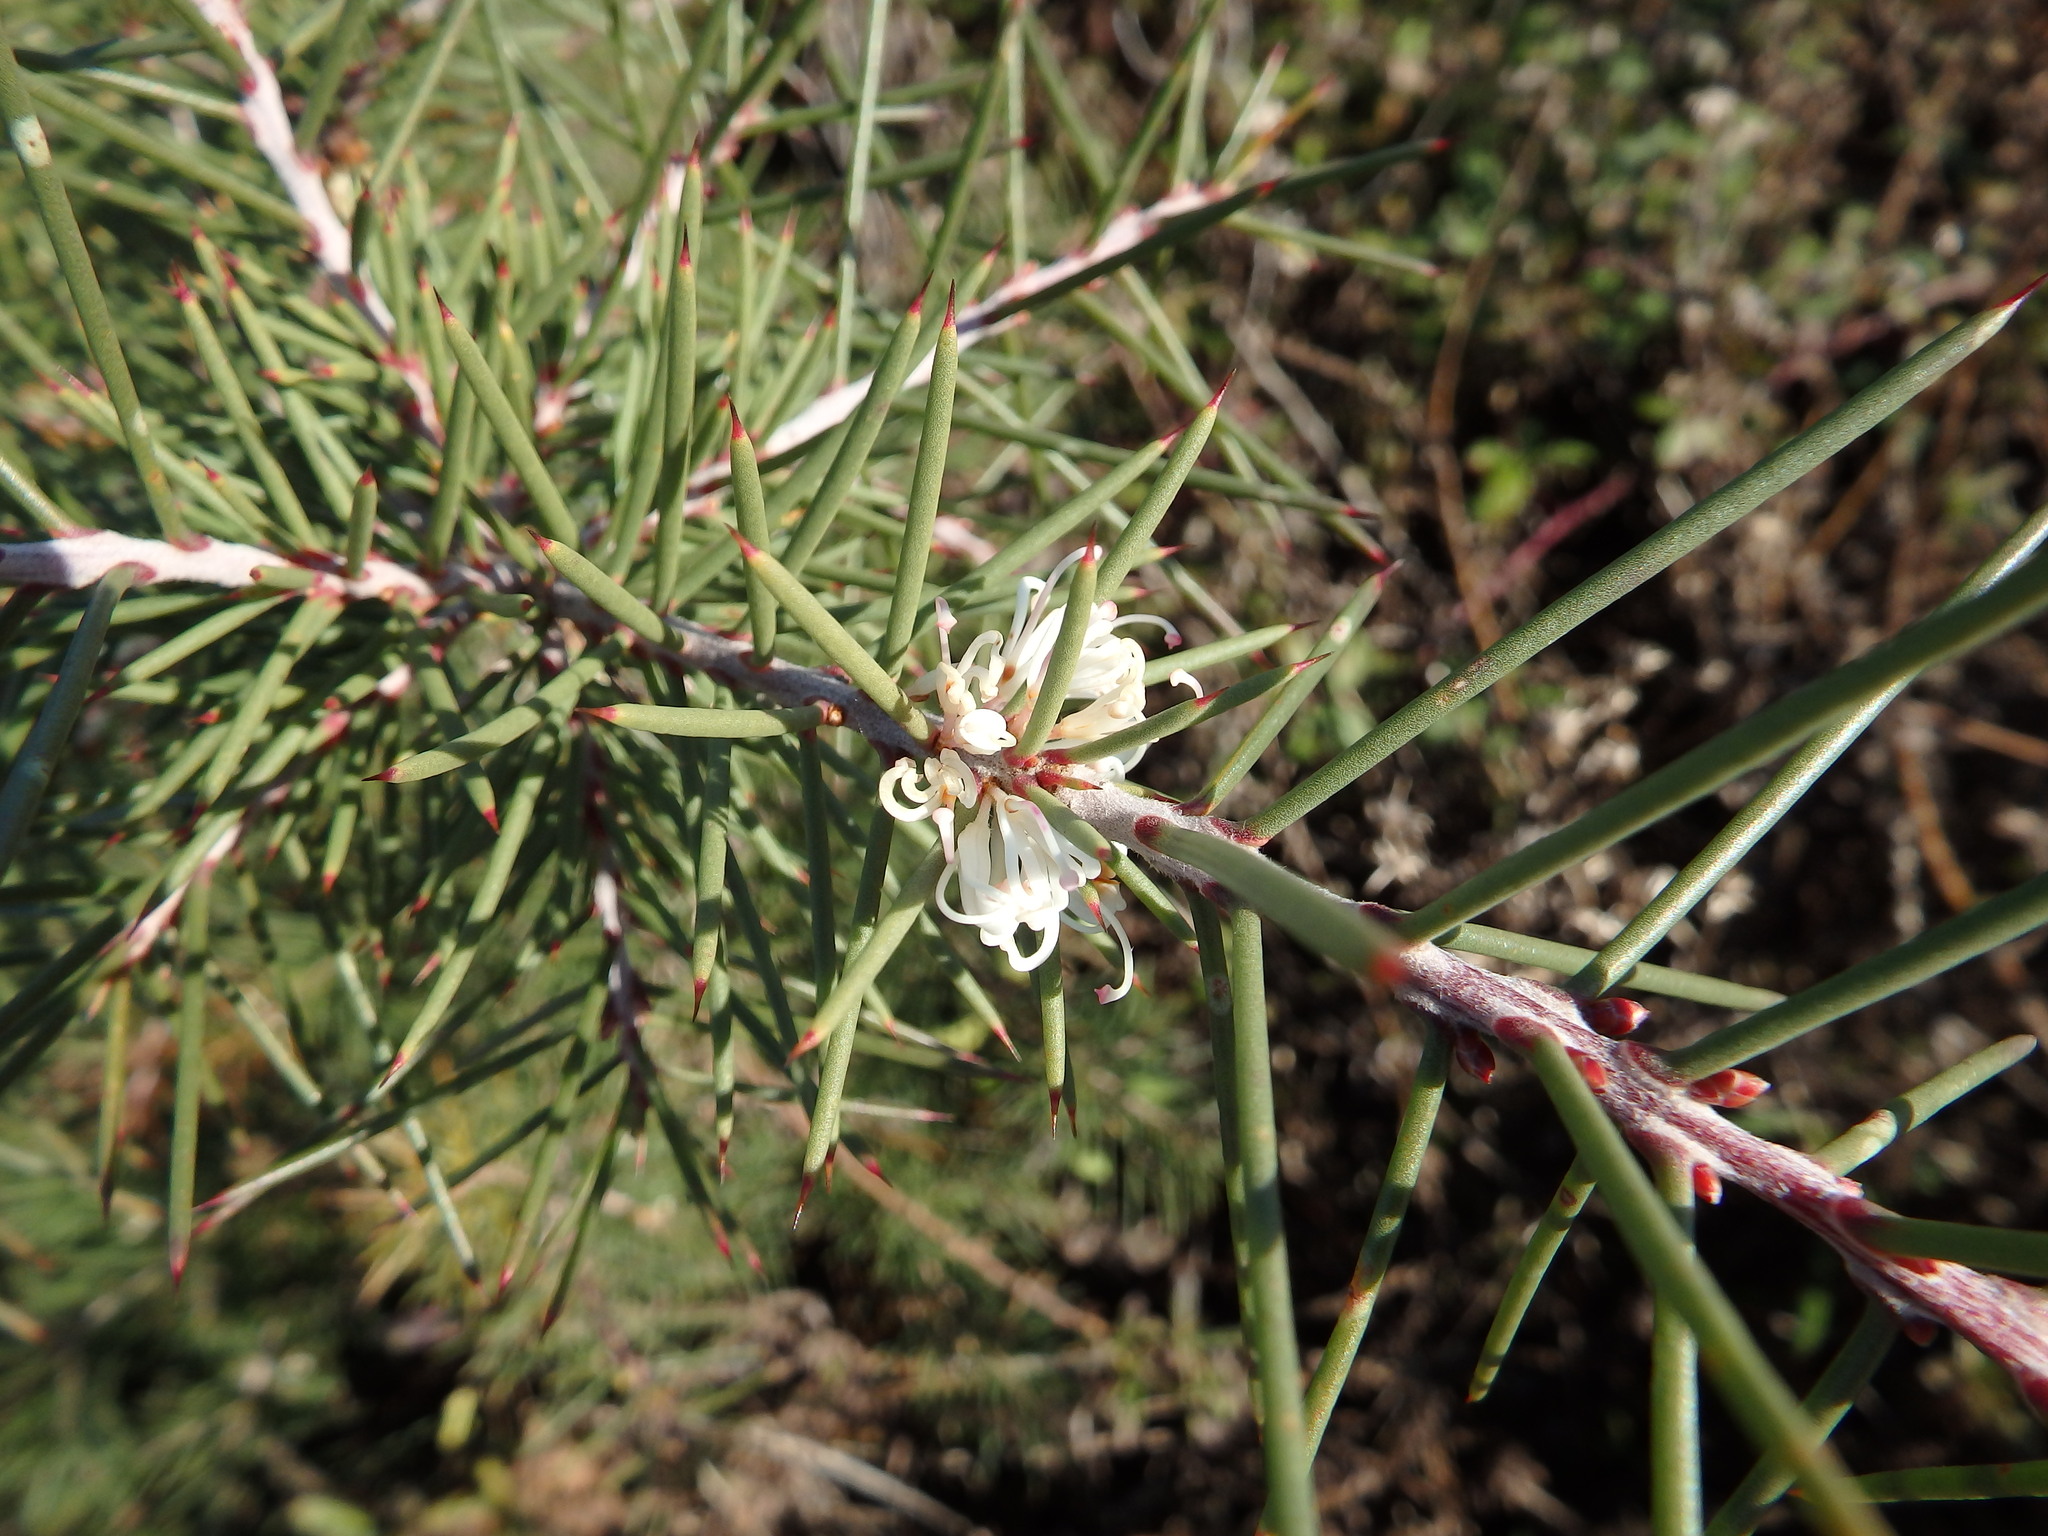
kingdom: Plantae
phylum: Tracheophyta
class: Magnoliopsida
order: Proteales
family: Proteaceae
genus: Hakea
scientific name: Hakea decurrens
